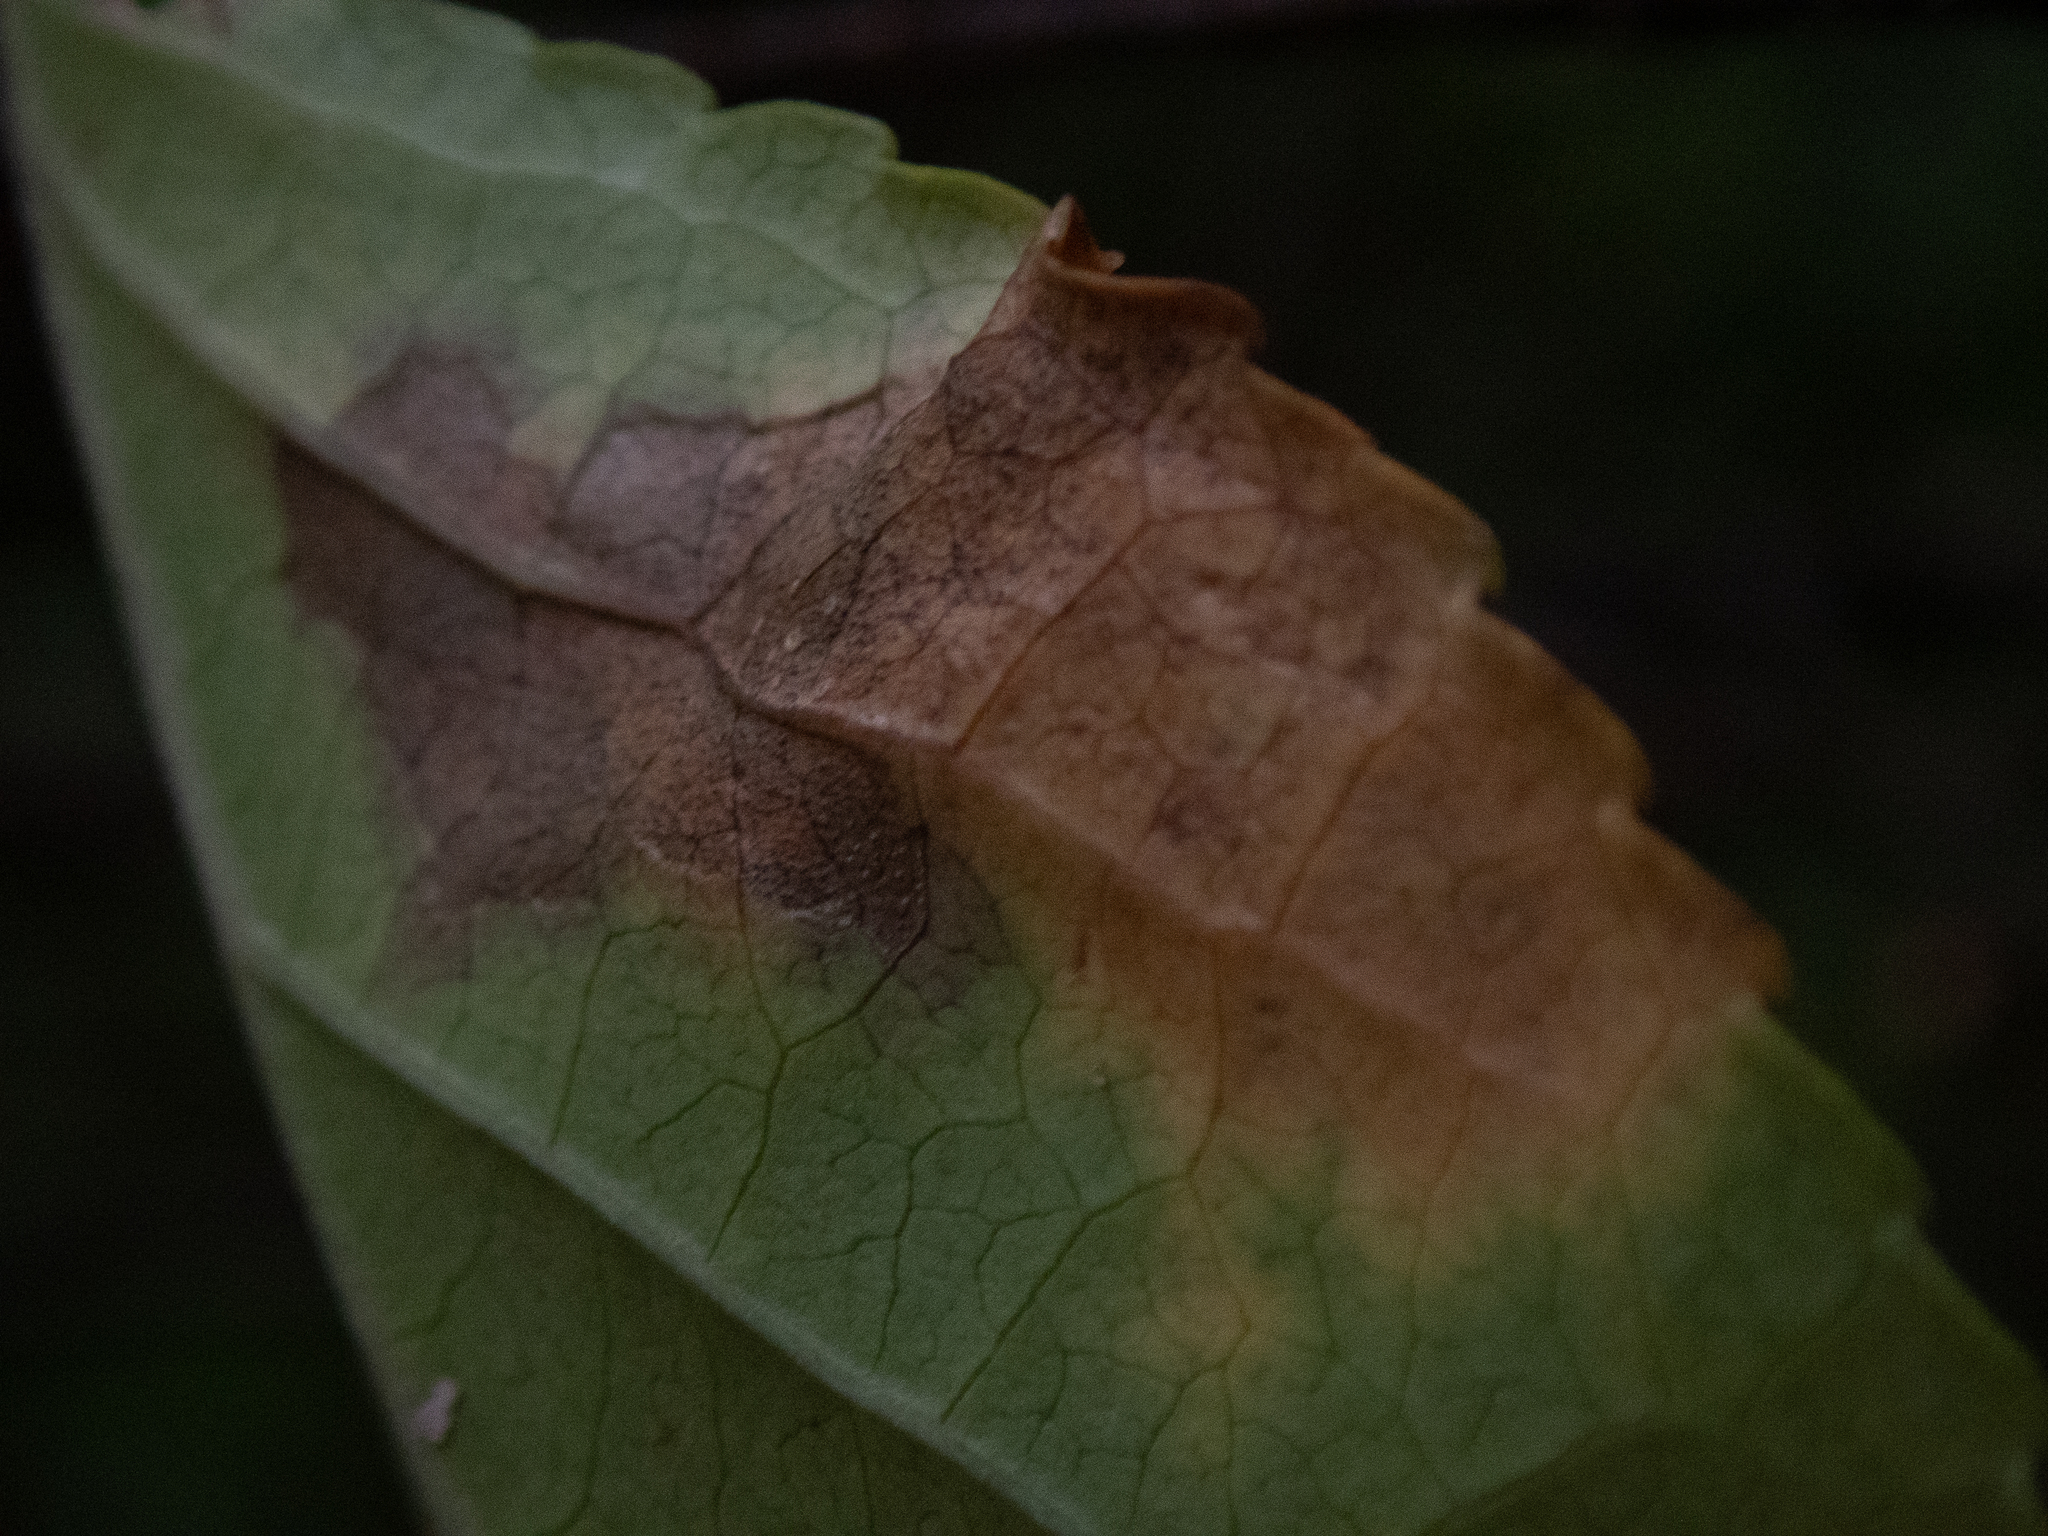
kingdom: Plantae
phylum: Tracheophyta
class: Magnoliopsida
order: Celastrales
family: Celastraceae
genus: Celastrus
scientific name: Celastrus orbiculatus
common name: Oriental bittersweet
